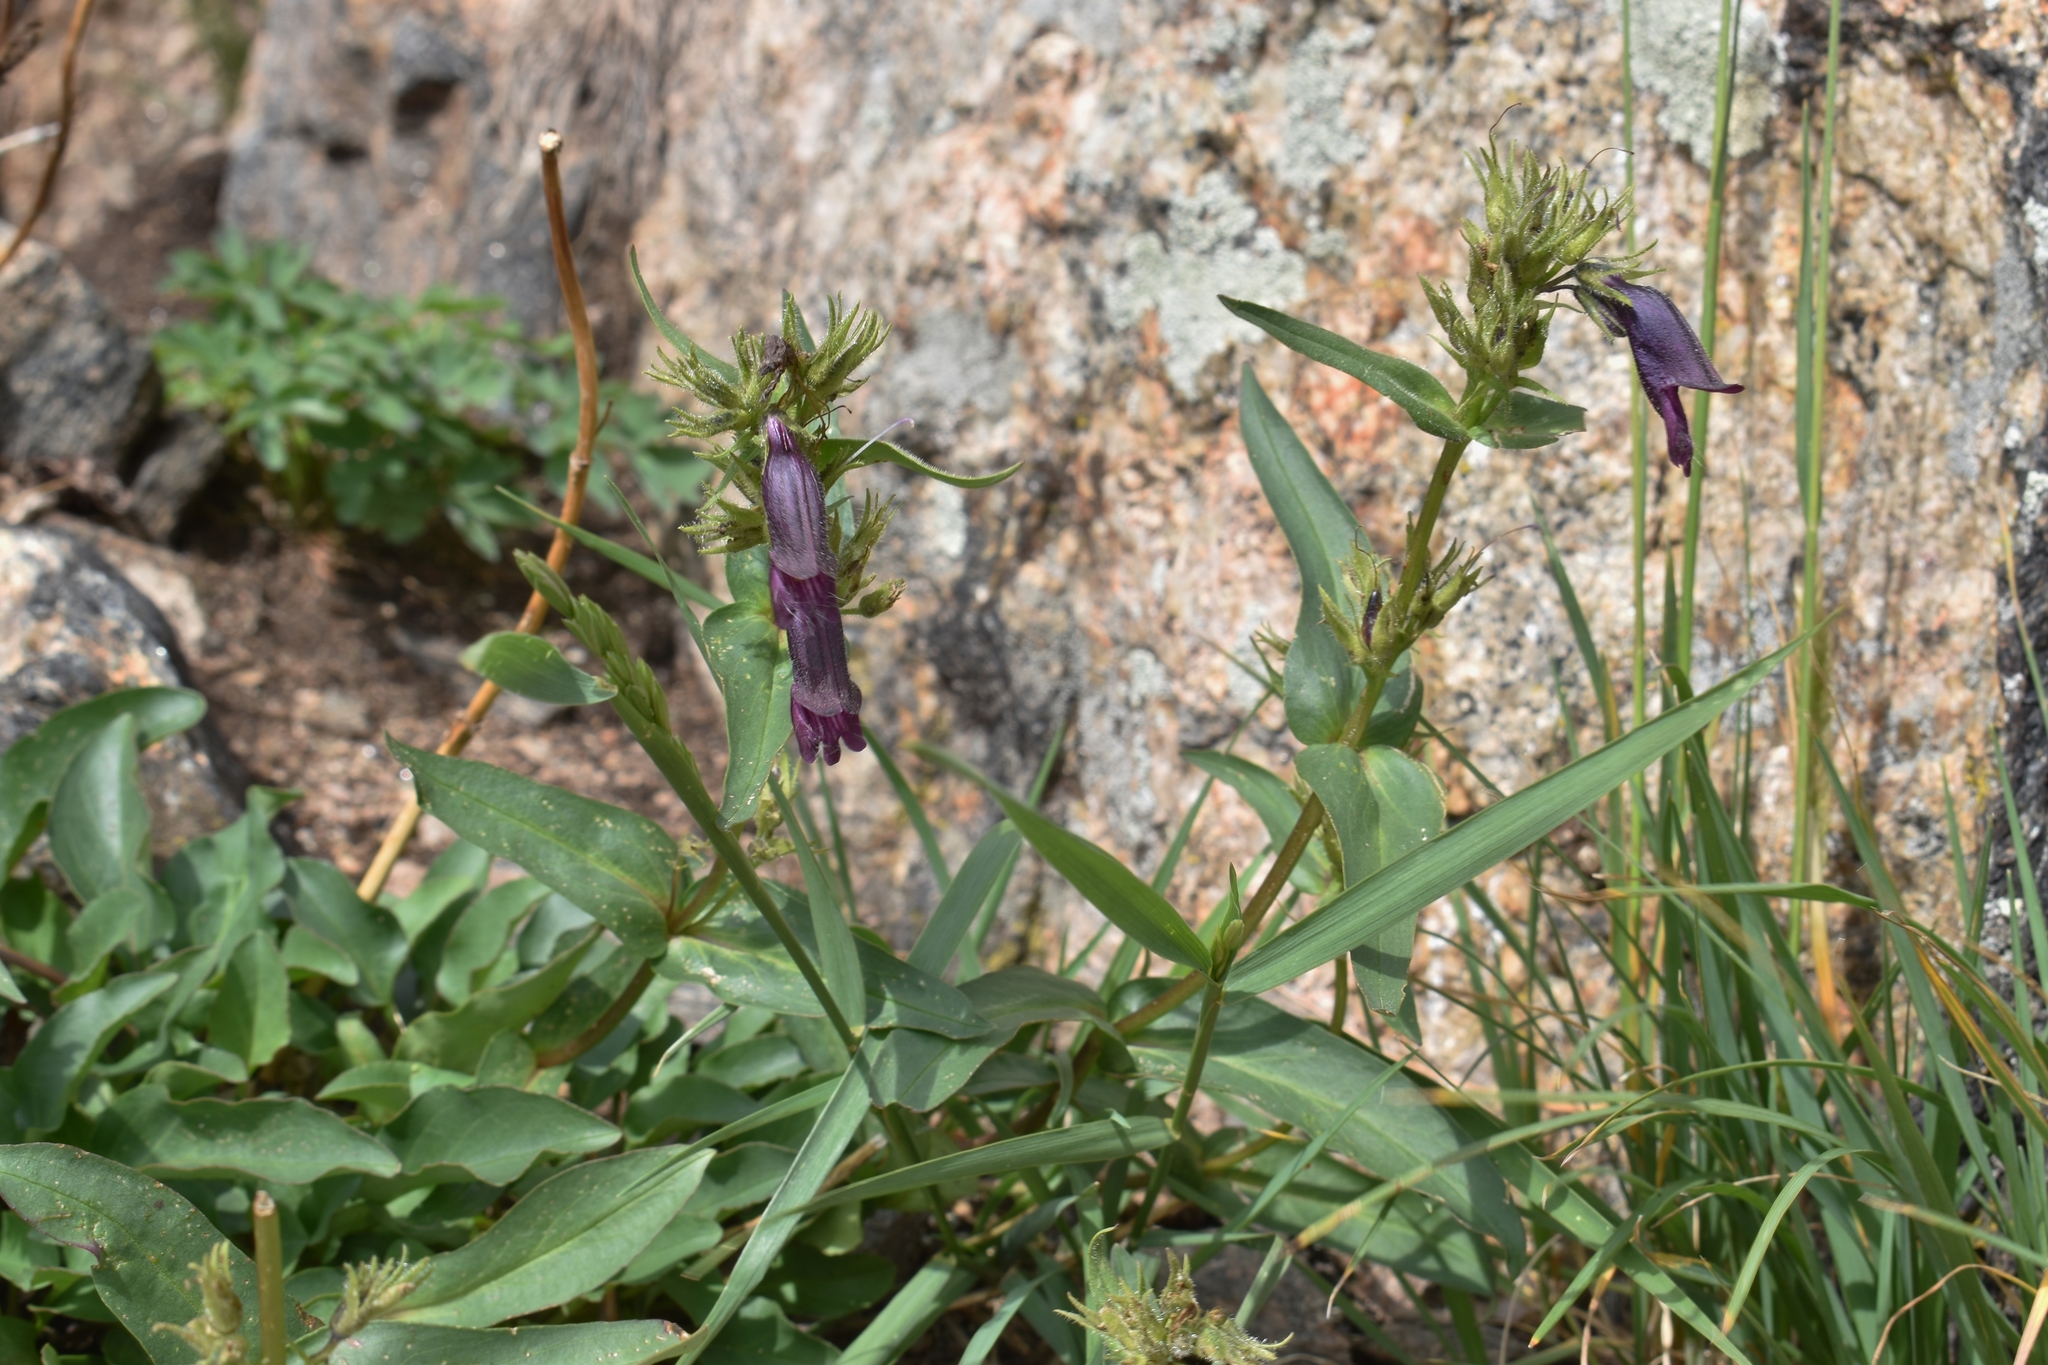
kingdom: Plantae
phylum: Tracheophyta
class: Magnoliopsida
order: Lamiales
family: Plantaginaceae
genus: Penstemon
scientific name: Penstemon whippleanus
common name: Whipple's penstemon
